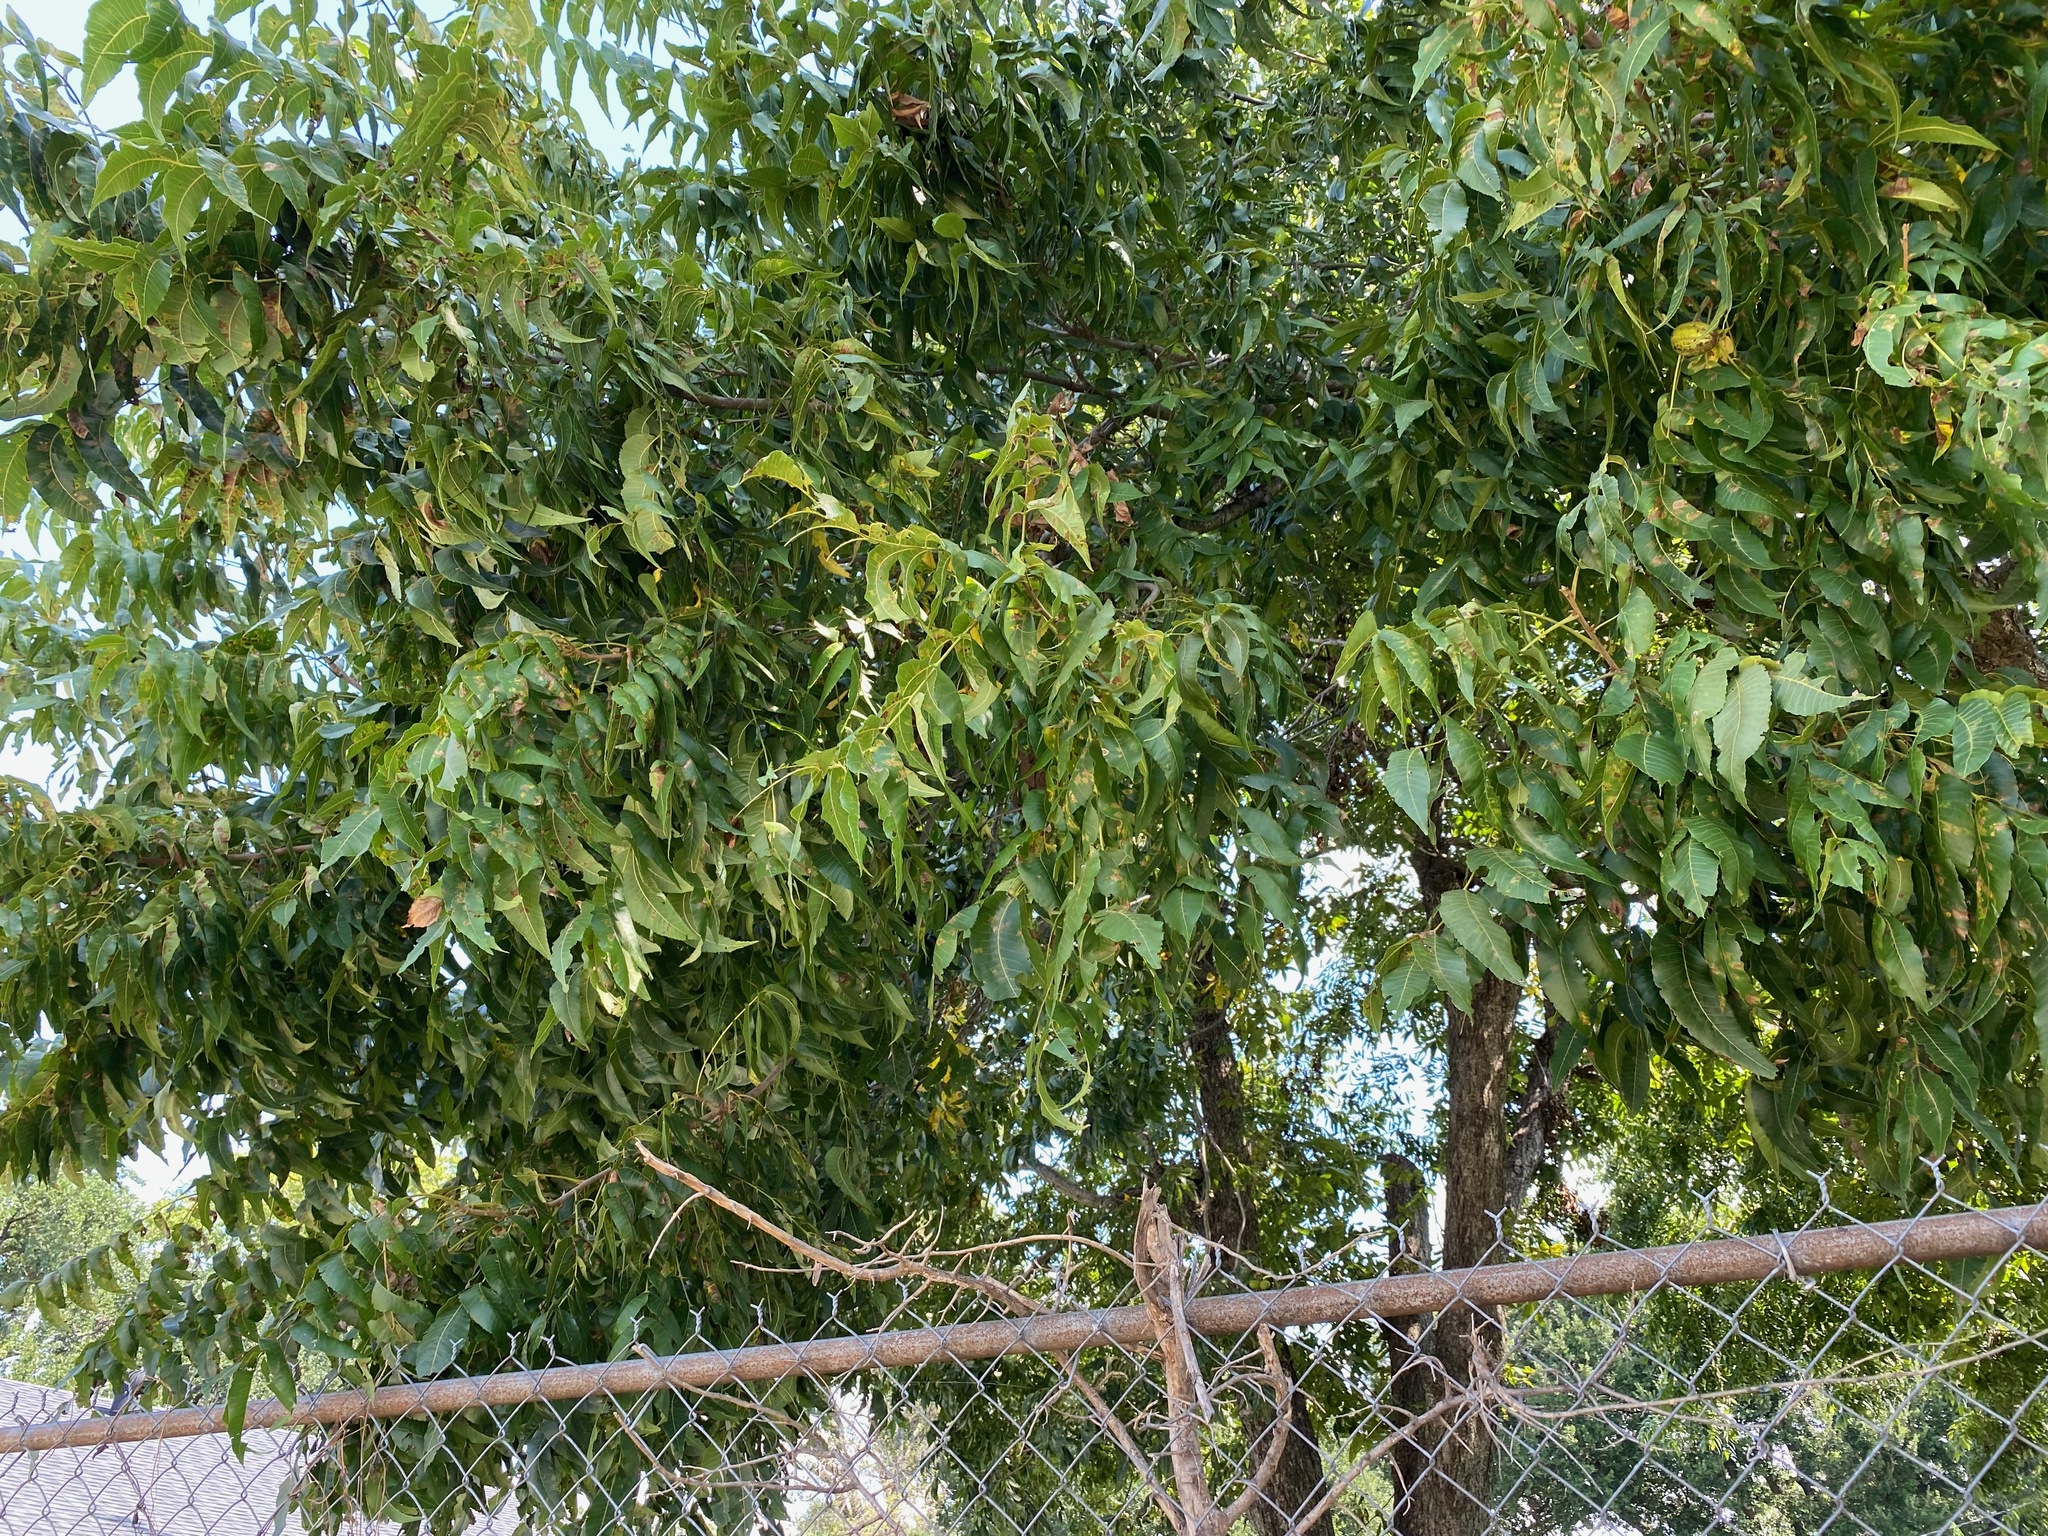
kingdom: Plantae
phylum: Tracheophyta
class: Magnoliopsida
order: Fagales
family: Juglandaceae
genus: Carya
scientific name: Carya illinoinensis
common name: Pecan
